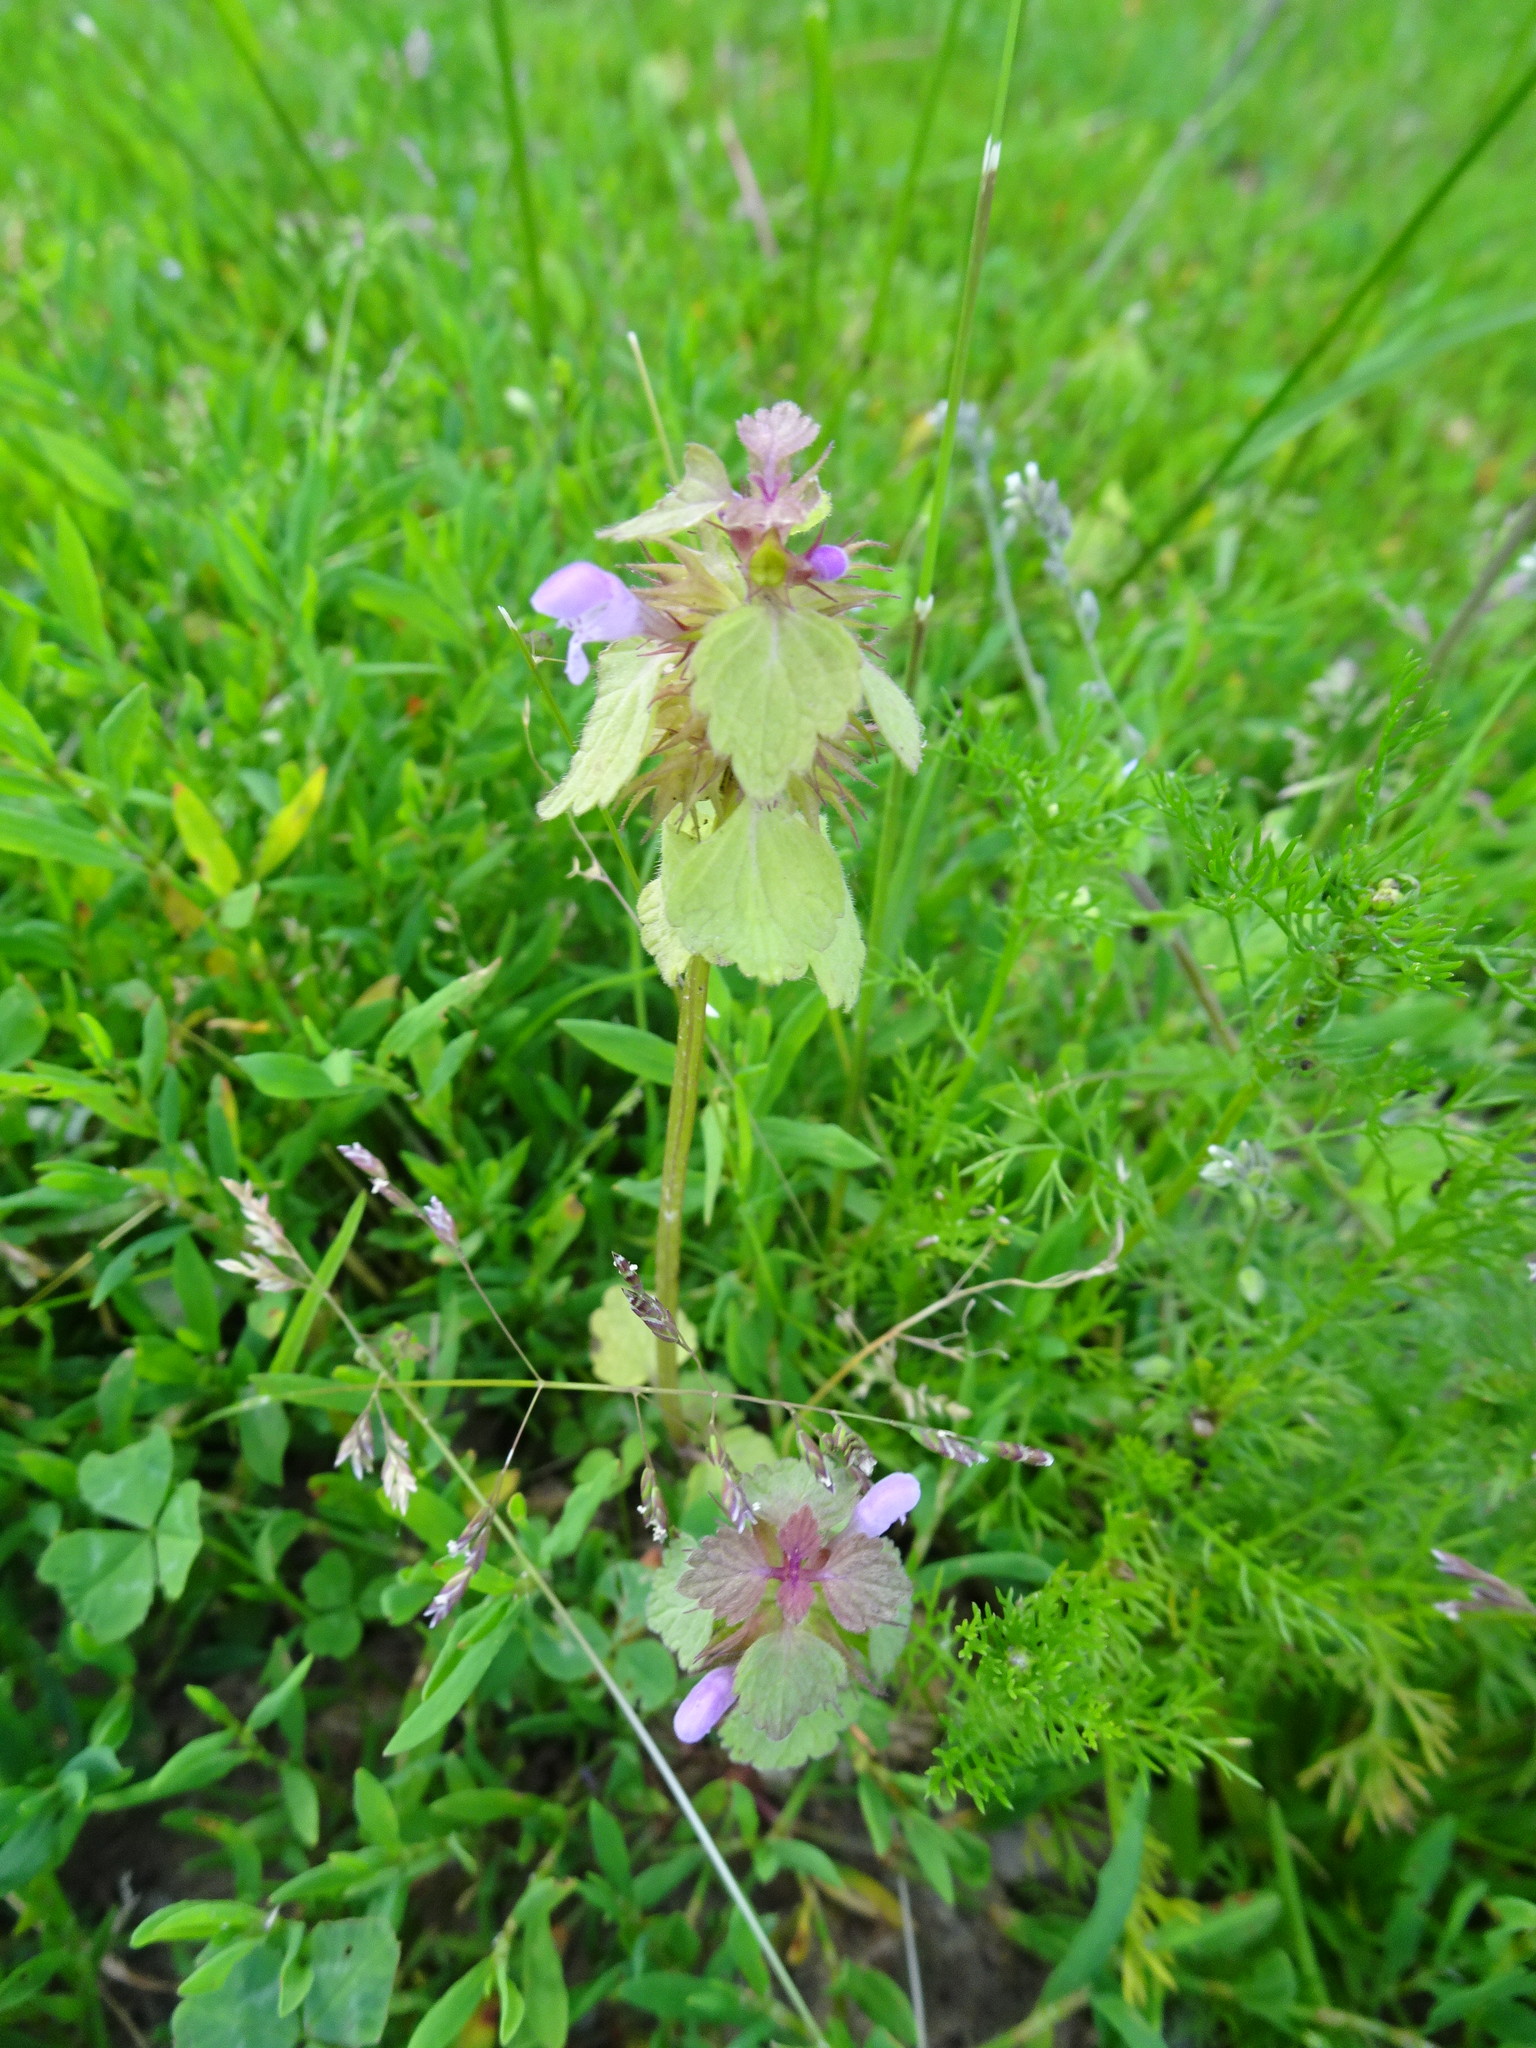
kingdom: Plantae
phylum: Tracheophyta
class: Magnoliopsida
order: Lamiales
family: Lamiaceae
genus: Lamium
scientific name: Lamium purpureum
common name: Red dead-nettle
